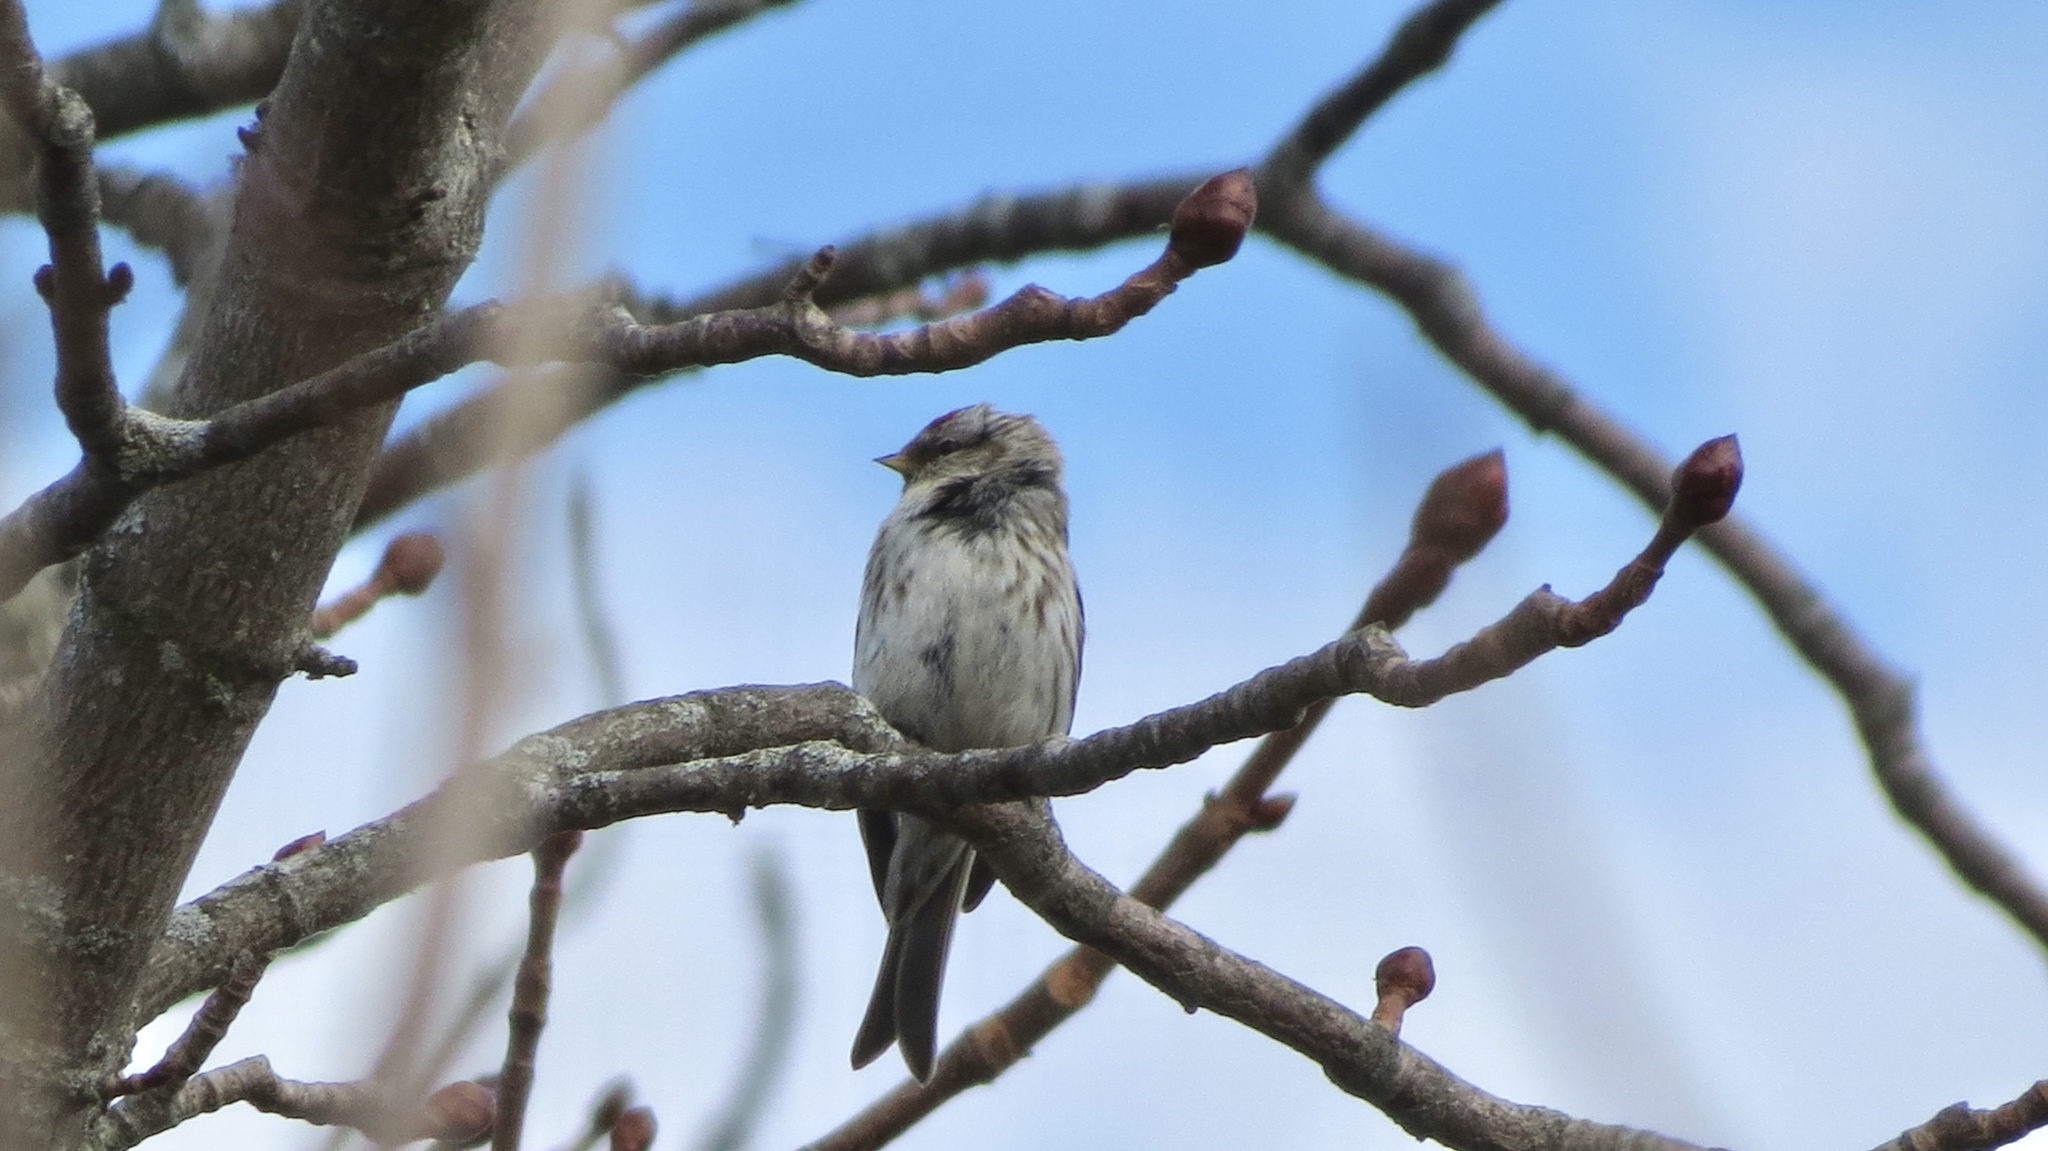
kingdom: Animalia
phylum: Chordata
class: Aves
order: Passeriformes
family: Fringillidae
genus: Acanthis
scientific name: Acanthis flammea
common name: Common redpoll
